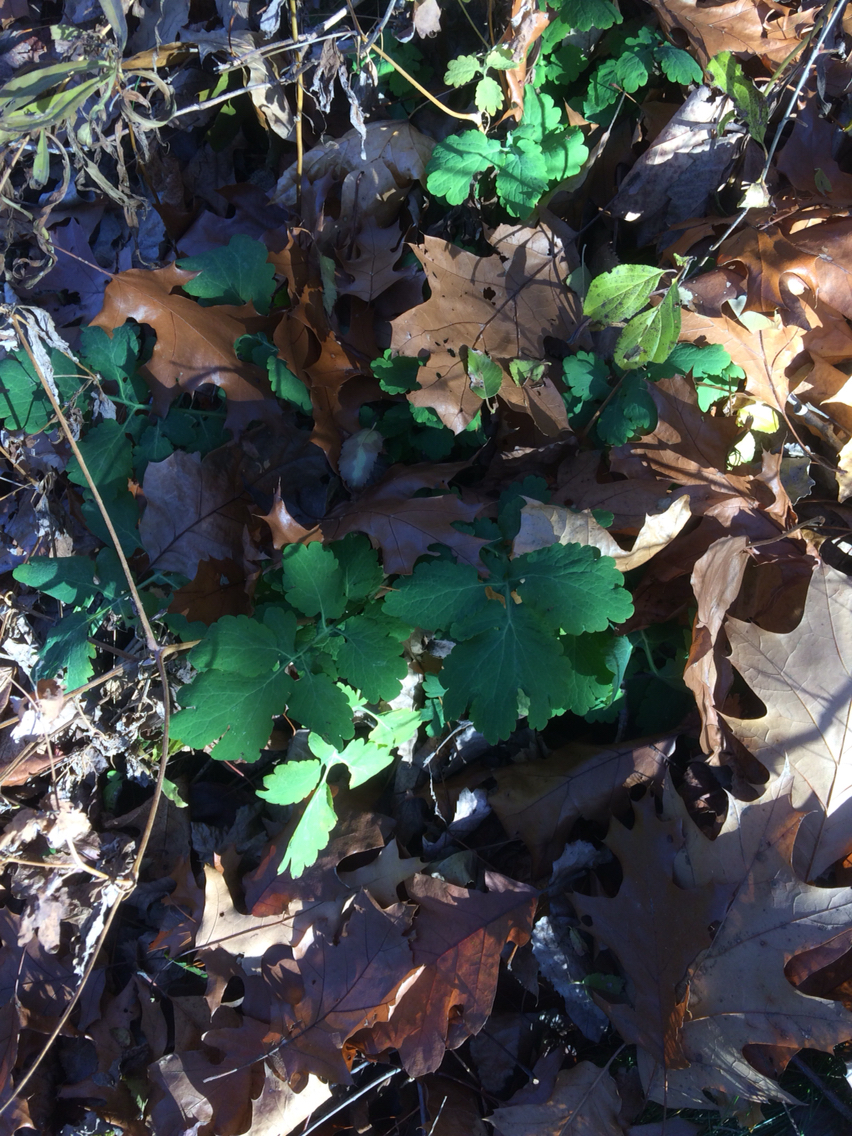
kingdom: Plantae
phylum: Tracheophyta
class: Magnoliopsida
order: Ranunculales
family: Papaveraceae
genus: Chelidonium
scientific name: Chelidonium majus
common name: Greater celandine
